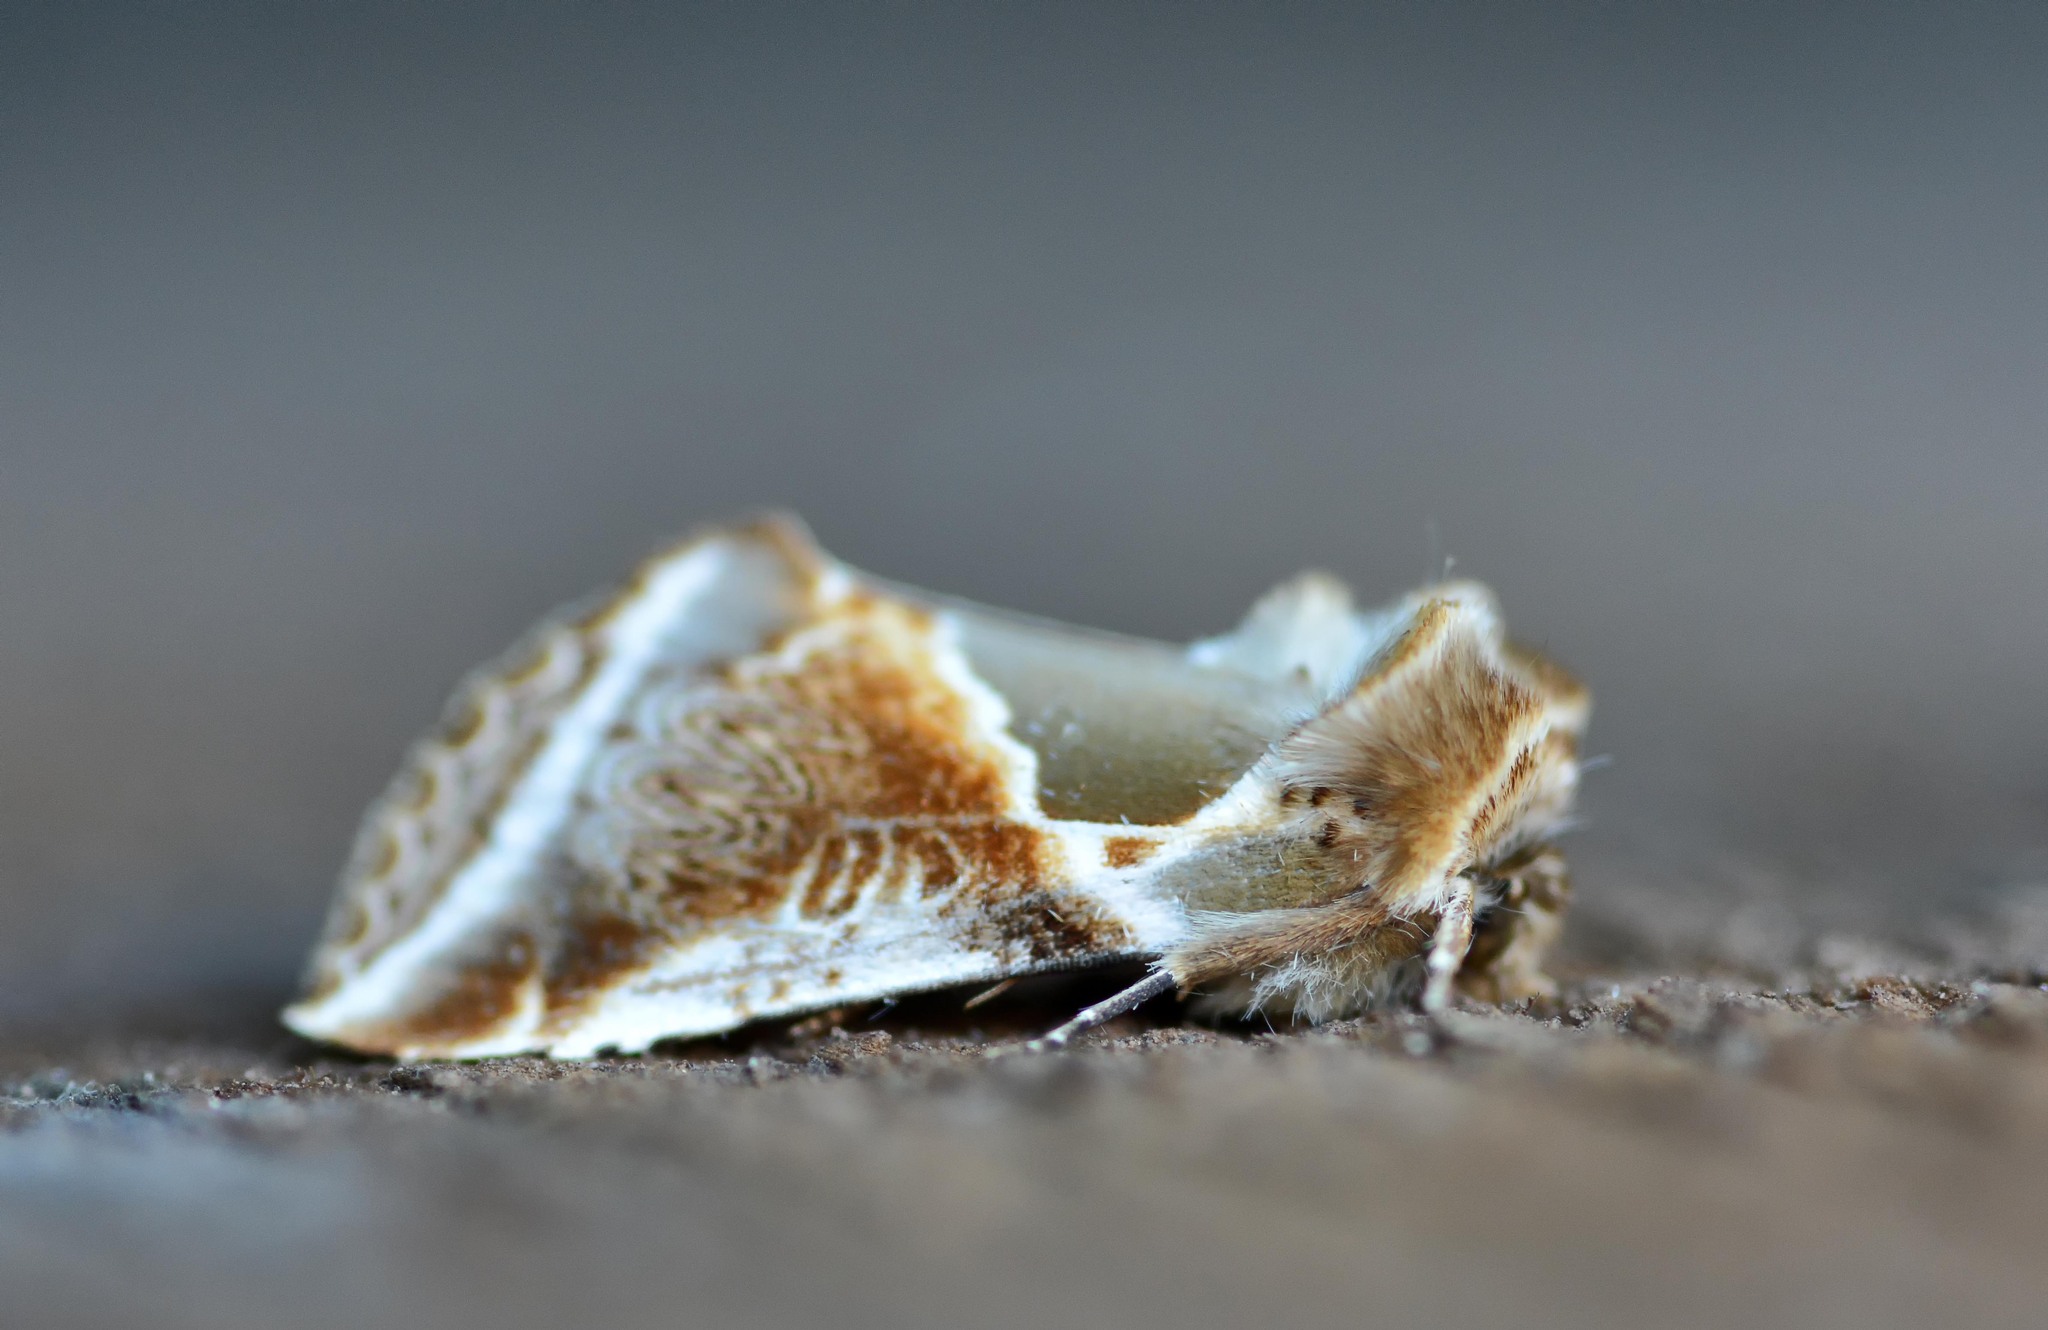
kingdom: Animalia
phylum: Arthropoda
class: Insecta
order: Lepidoptera
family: Drepanidae
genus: Habrosyne
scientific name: Habrosyne pyritoides
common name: Buff arches
